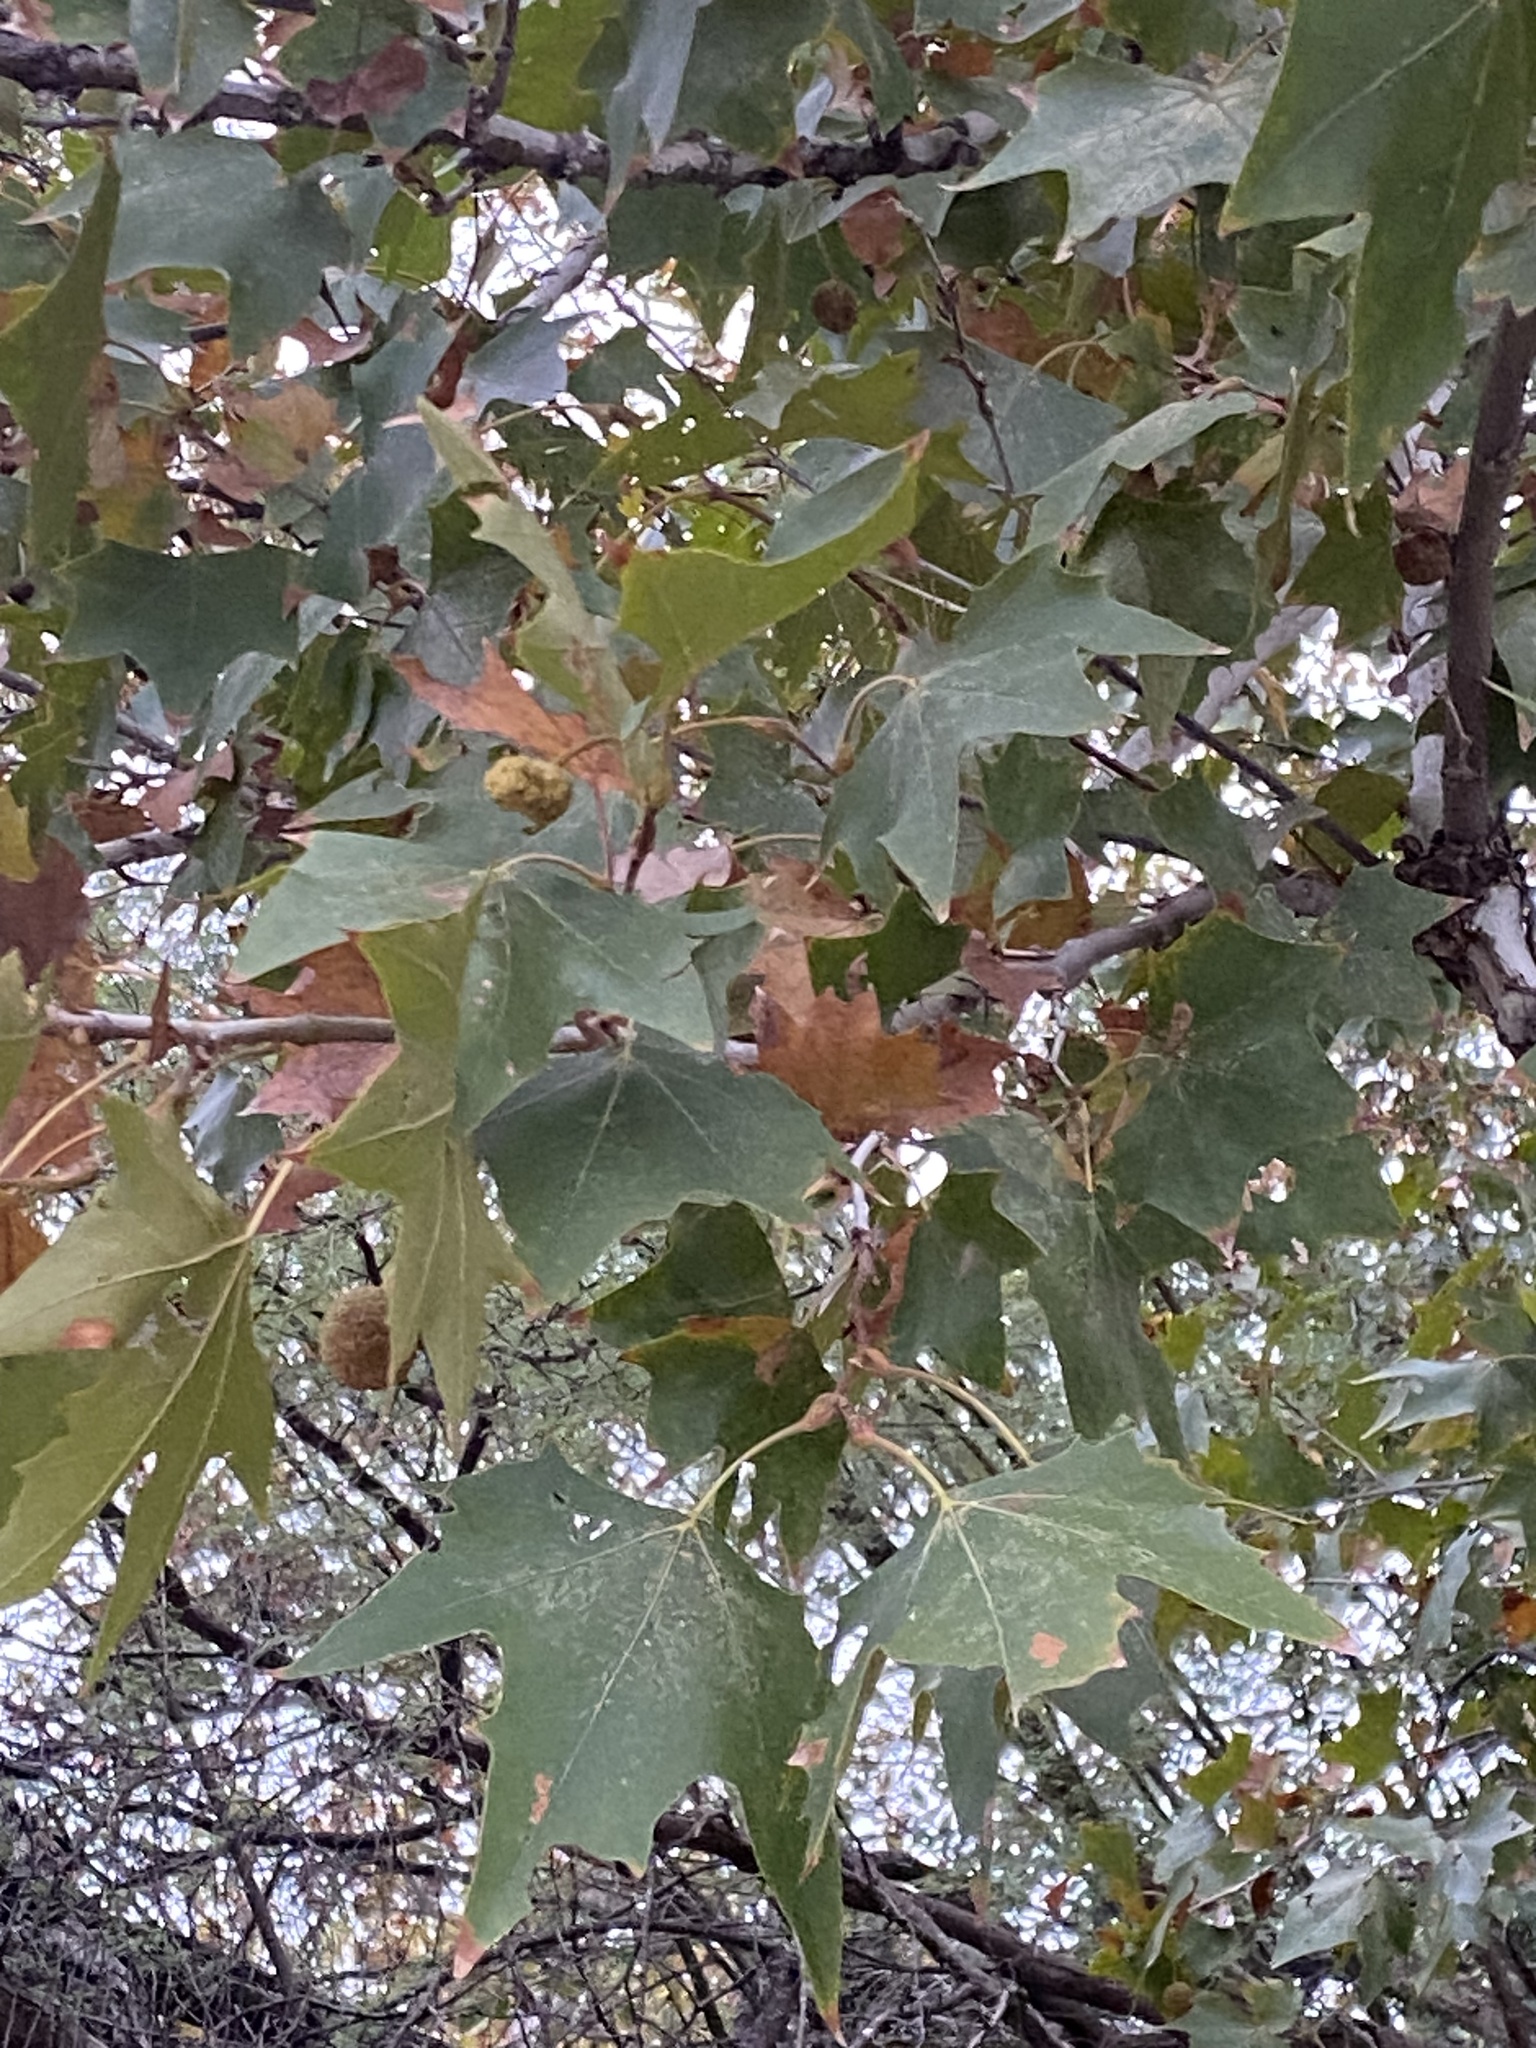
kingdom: Plantae
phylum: Tracheophyta
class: Magnoliopsida
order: Proteales
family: Platanaceae
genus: Platanus
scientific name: Platanus occidentalis
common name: American sycamore
